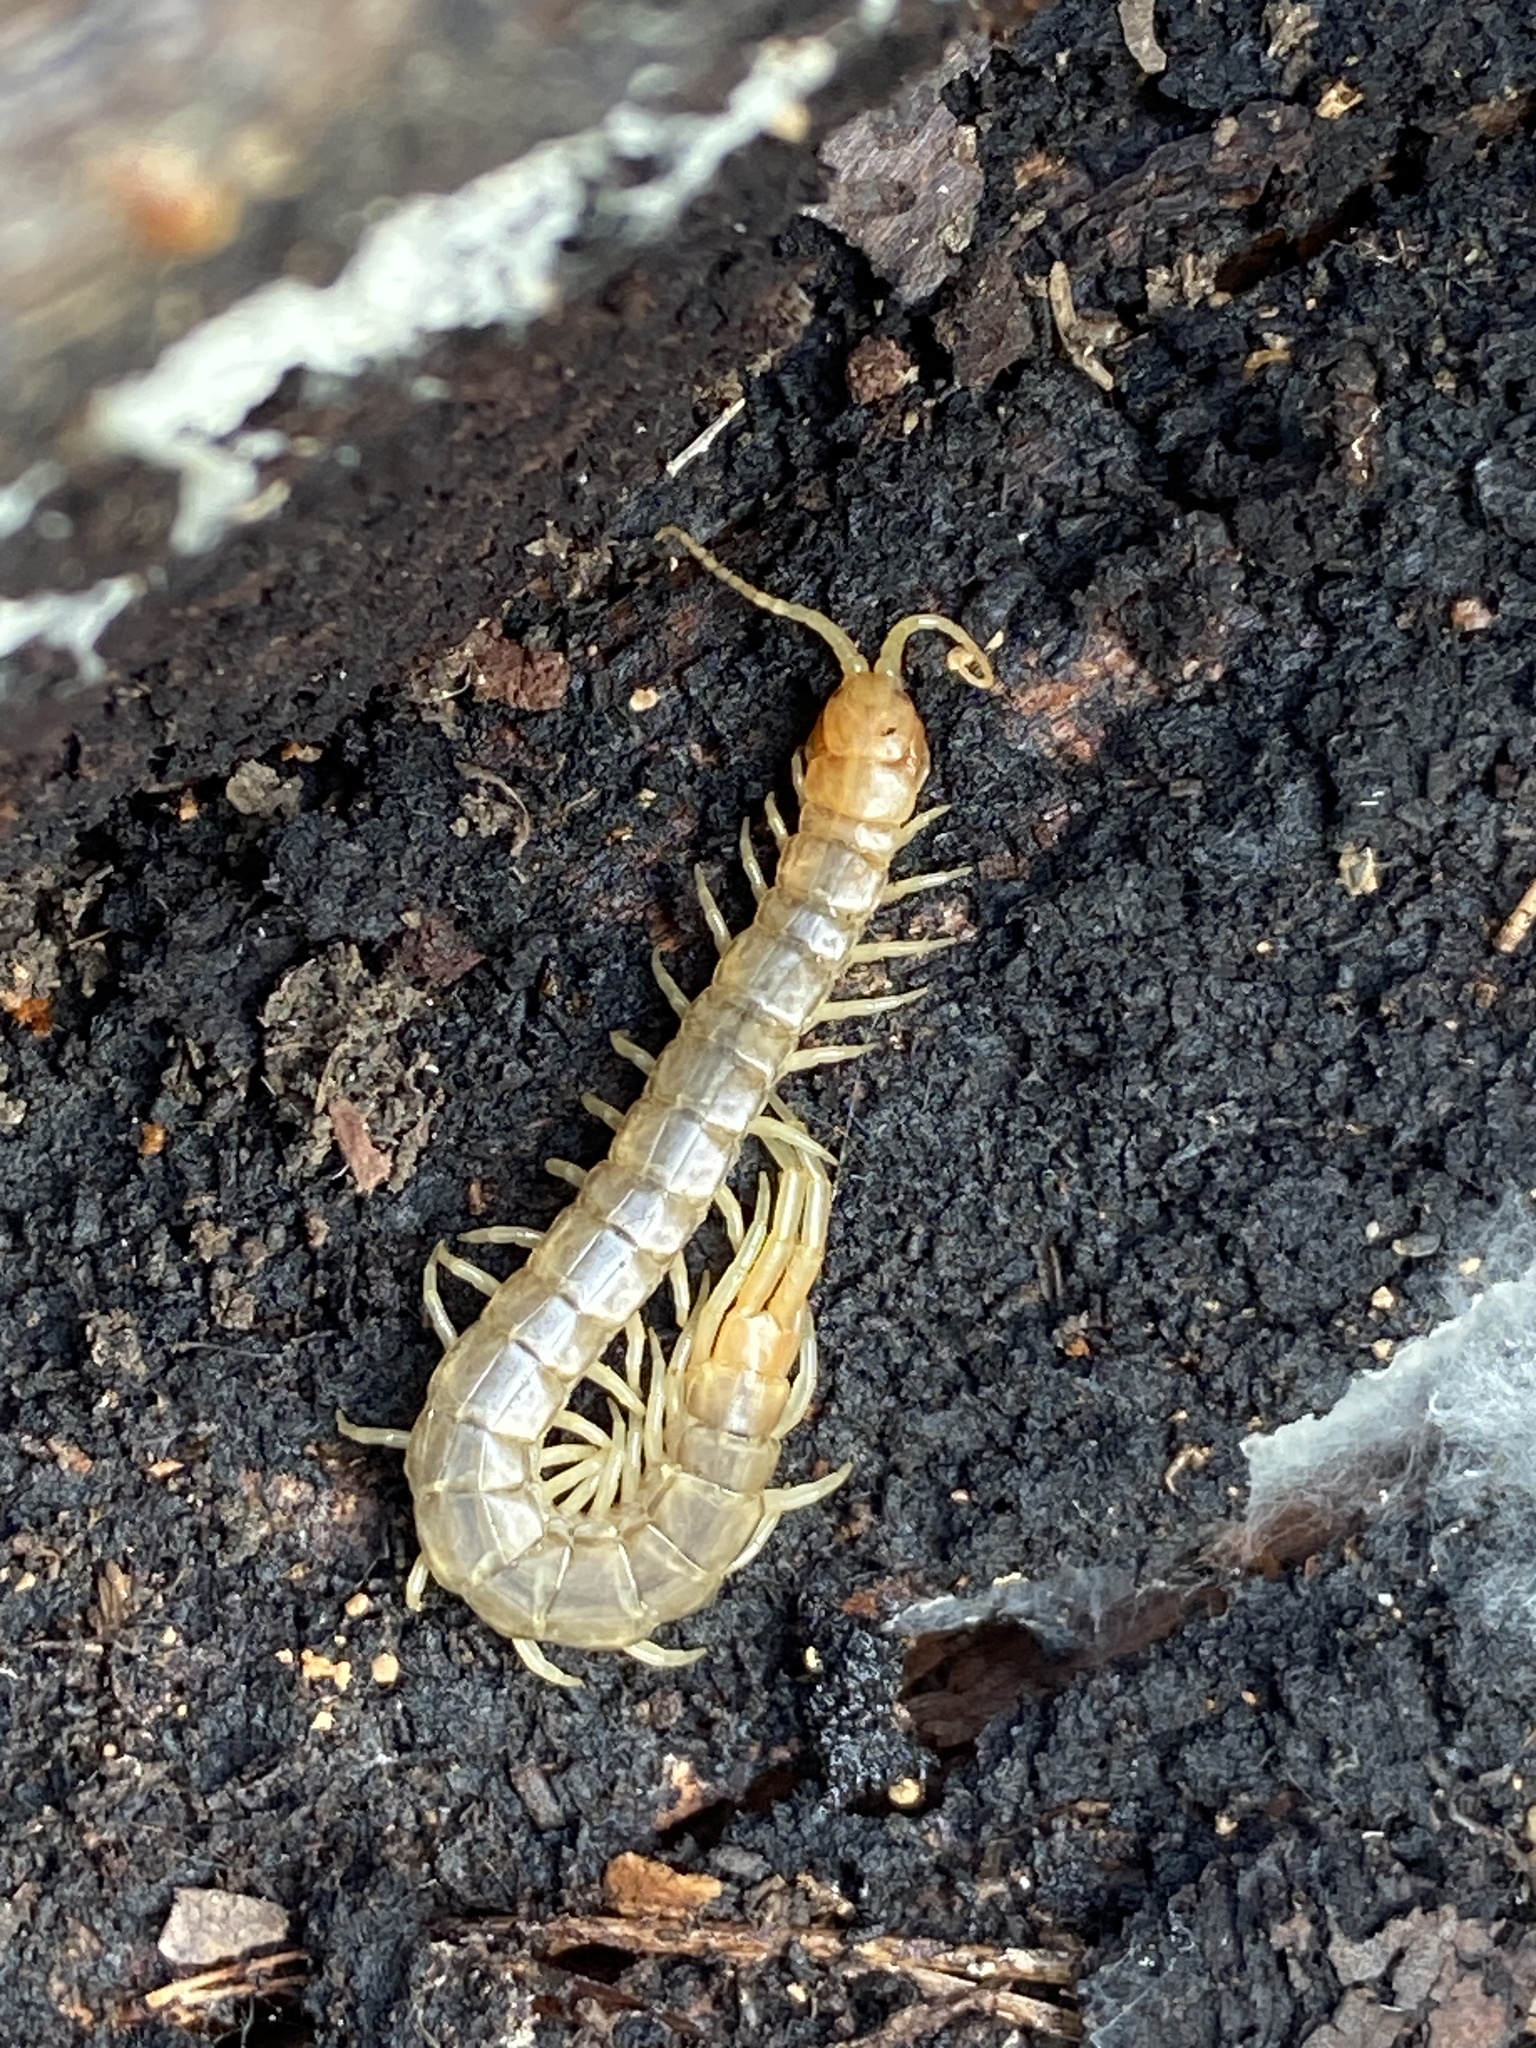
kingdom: Animalia
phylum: Arthropoda
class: Chilopoda
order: Scolopendromorpha
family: Scolopendridae
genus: Scolopendra
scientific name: Scolopendra oraniensis
